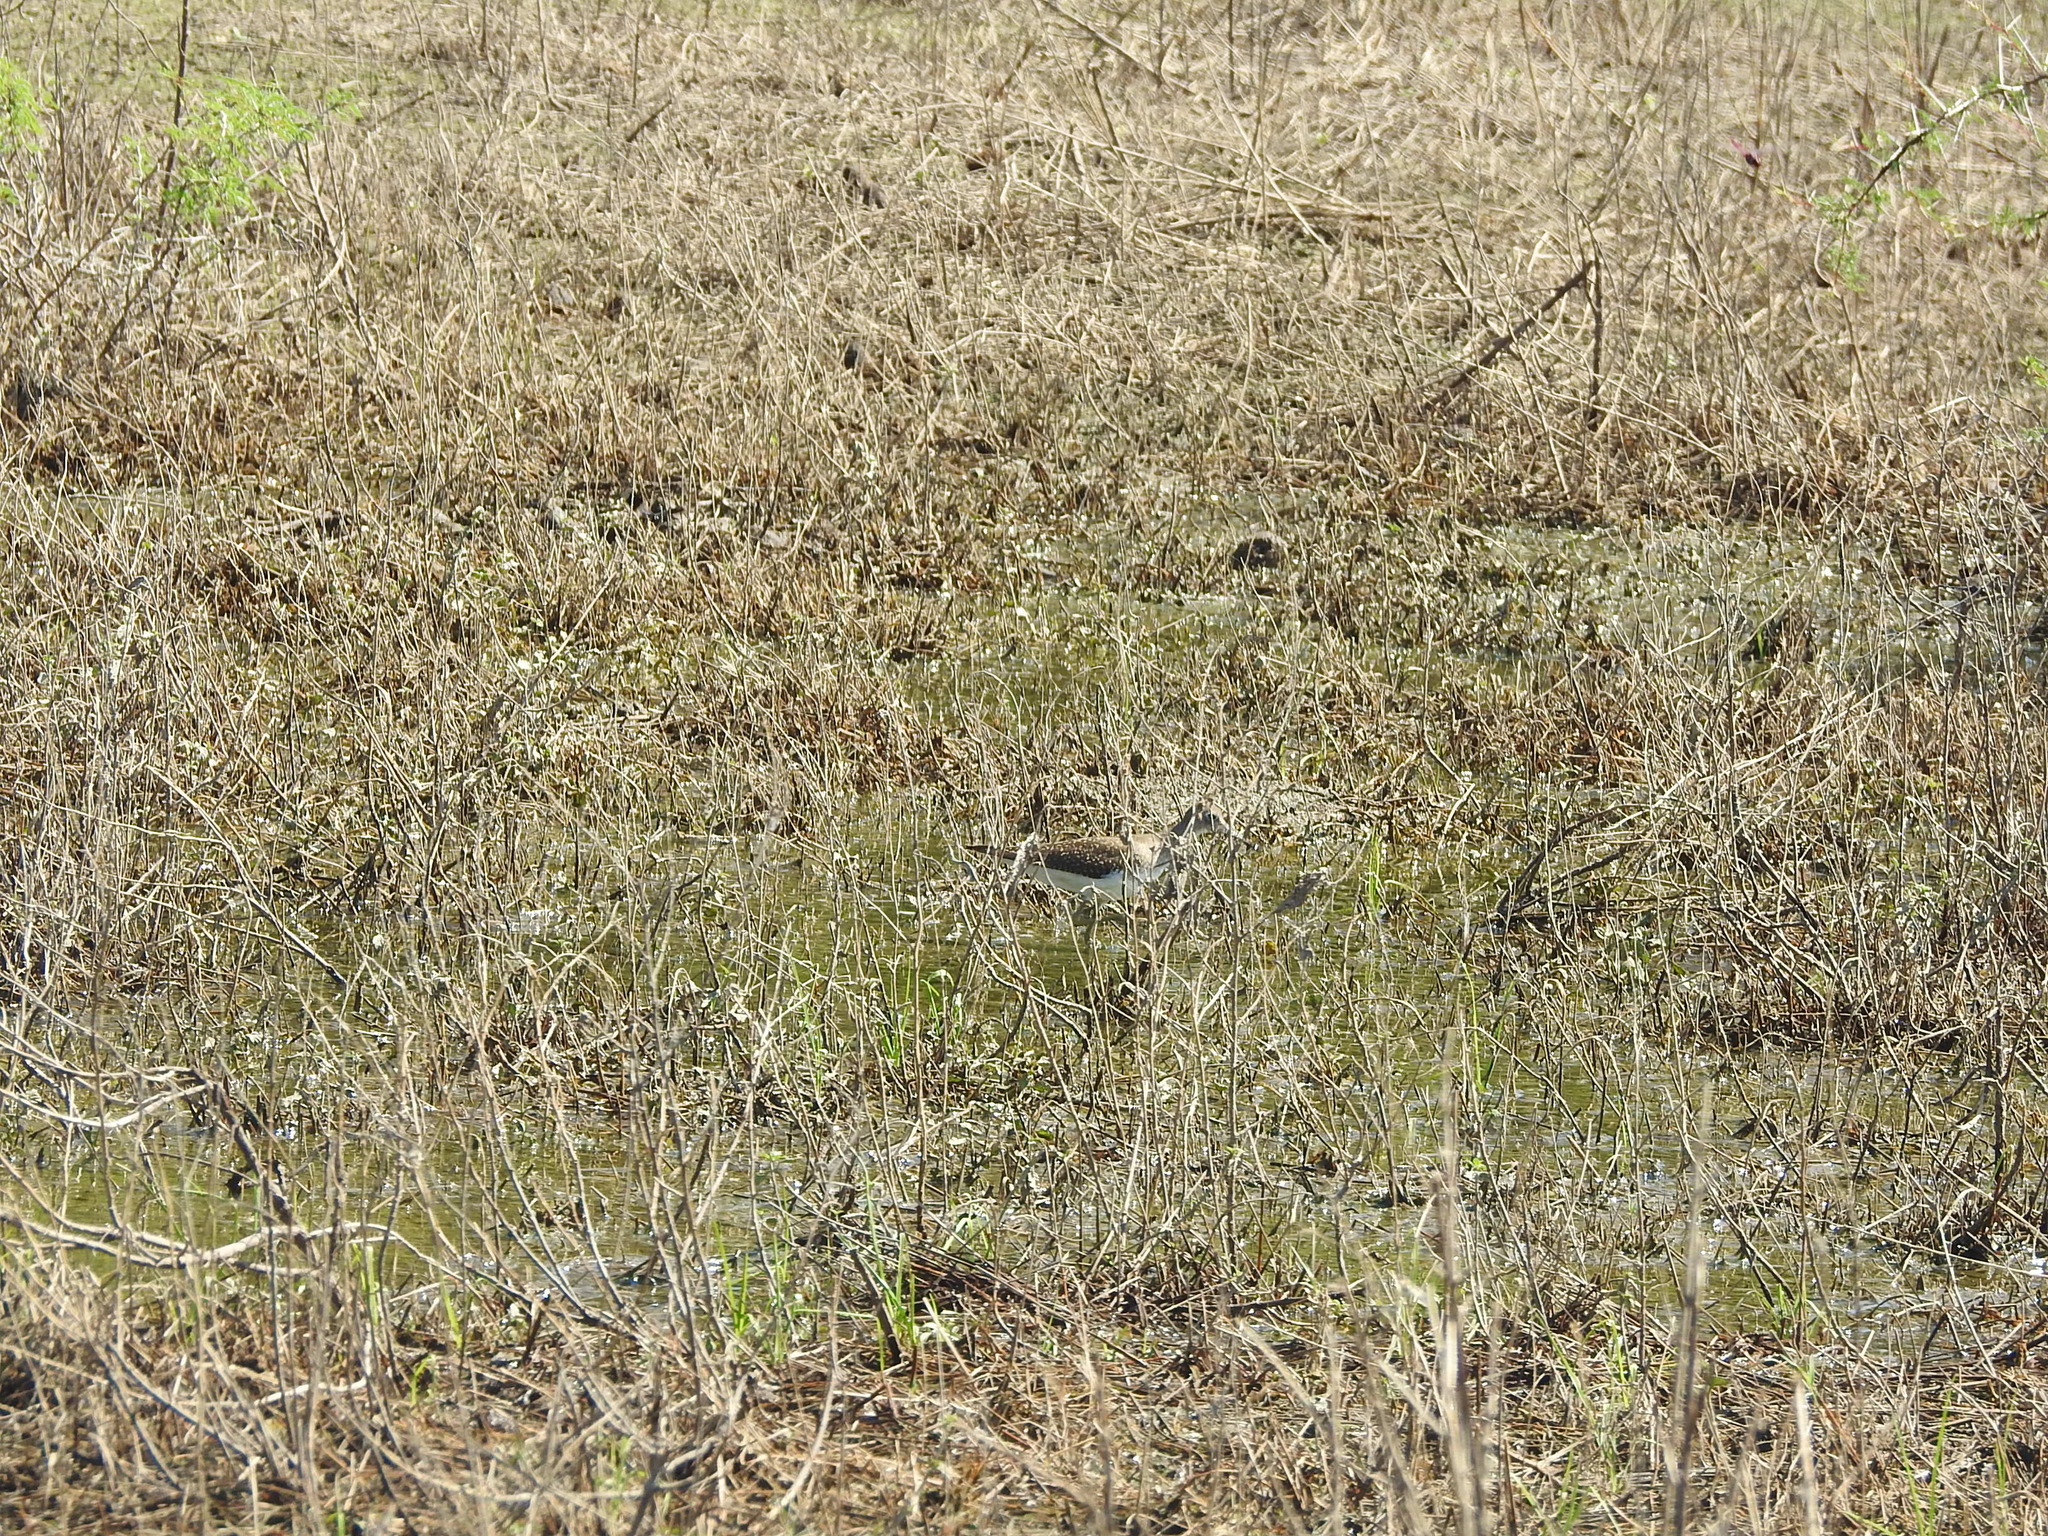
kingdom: Animalia
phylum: Chordata
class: Aves
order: Charadriiformes
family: Scolopacidae
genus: Tringa
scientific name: Tringa solitaria
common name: Solitary sandpiper
